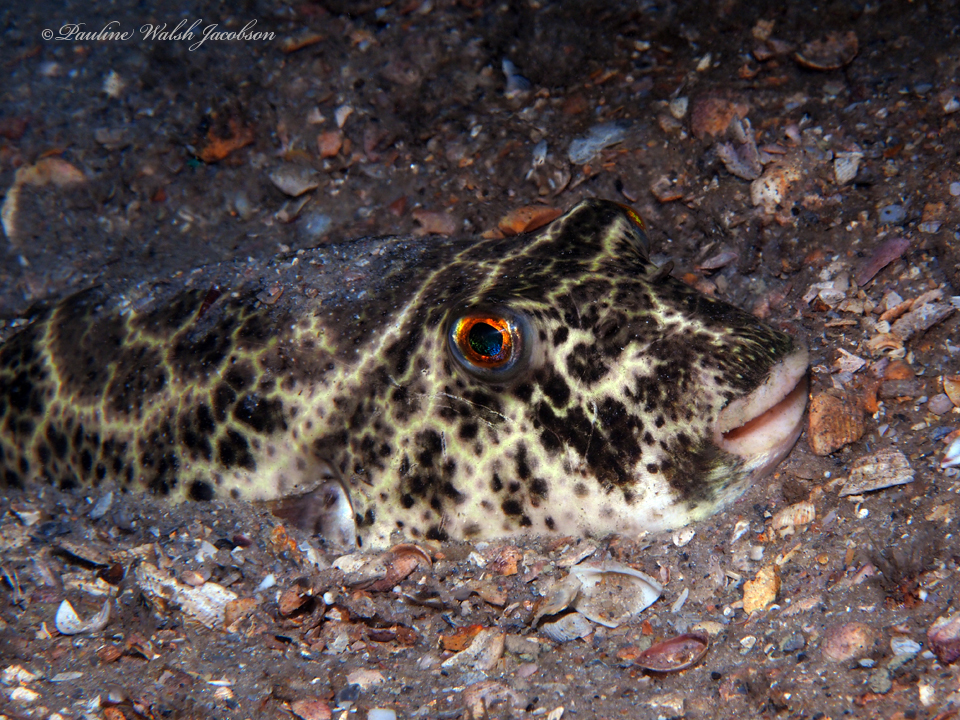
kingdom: Animalia
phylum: Chordata
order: Tetraodontiformes
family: Tetraodontidae
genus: Sphoeroides
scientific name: Sphoeroides testudineus
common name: Checkered puffer
